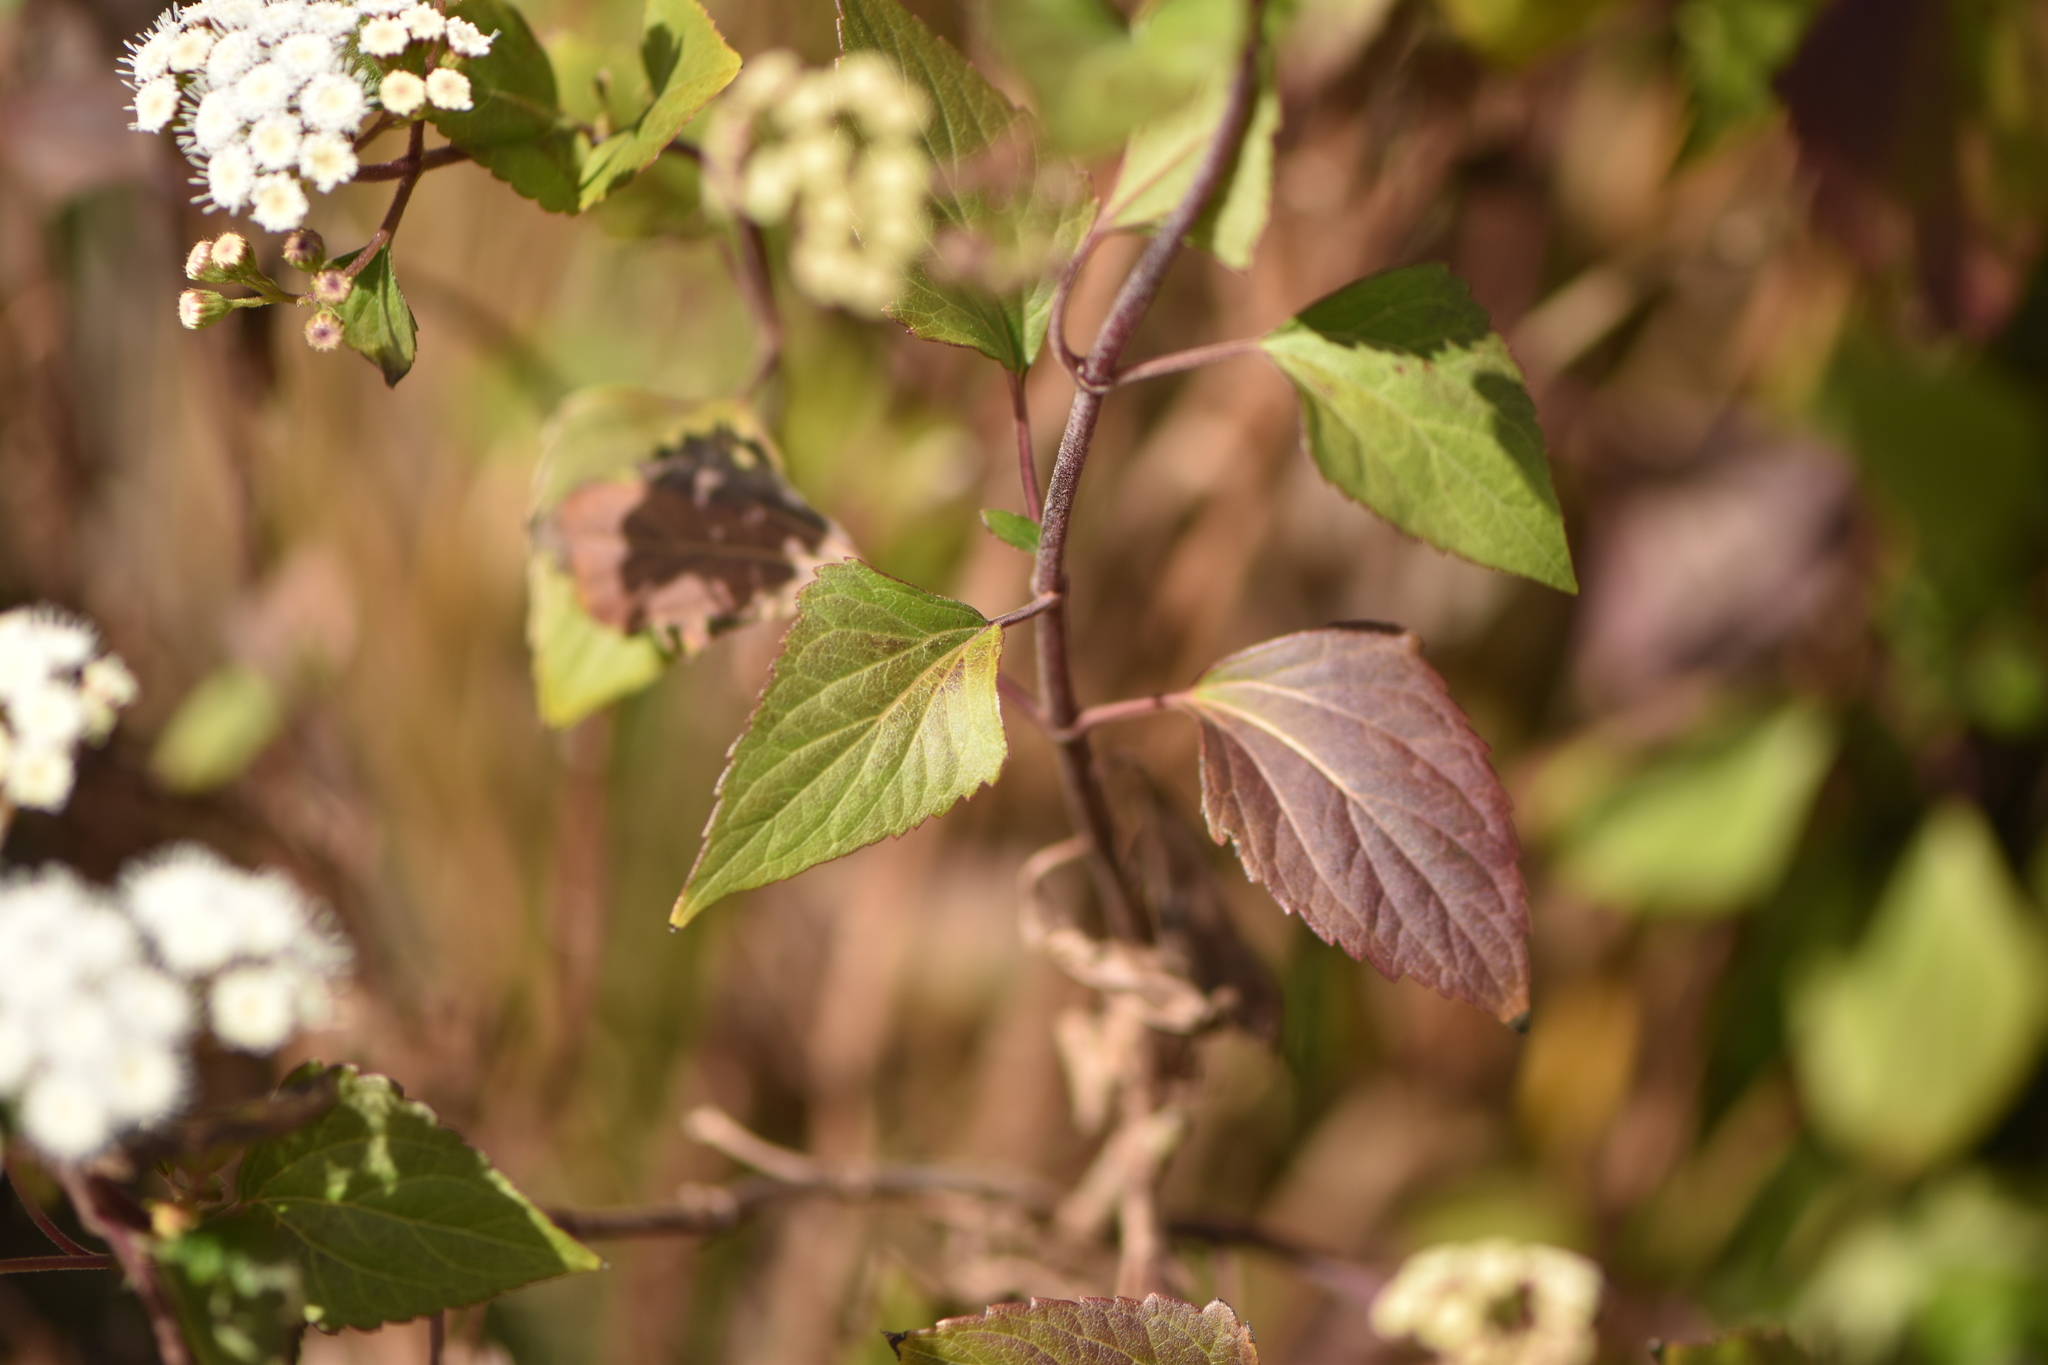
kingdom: Plantae
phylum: Tracheophyta
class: Magnoliopsida
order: Asterales
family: Asteraceae
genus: Ageratina
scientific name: Ageratina adenophora
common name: Sticky snakeroot
